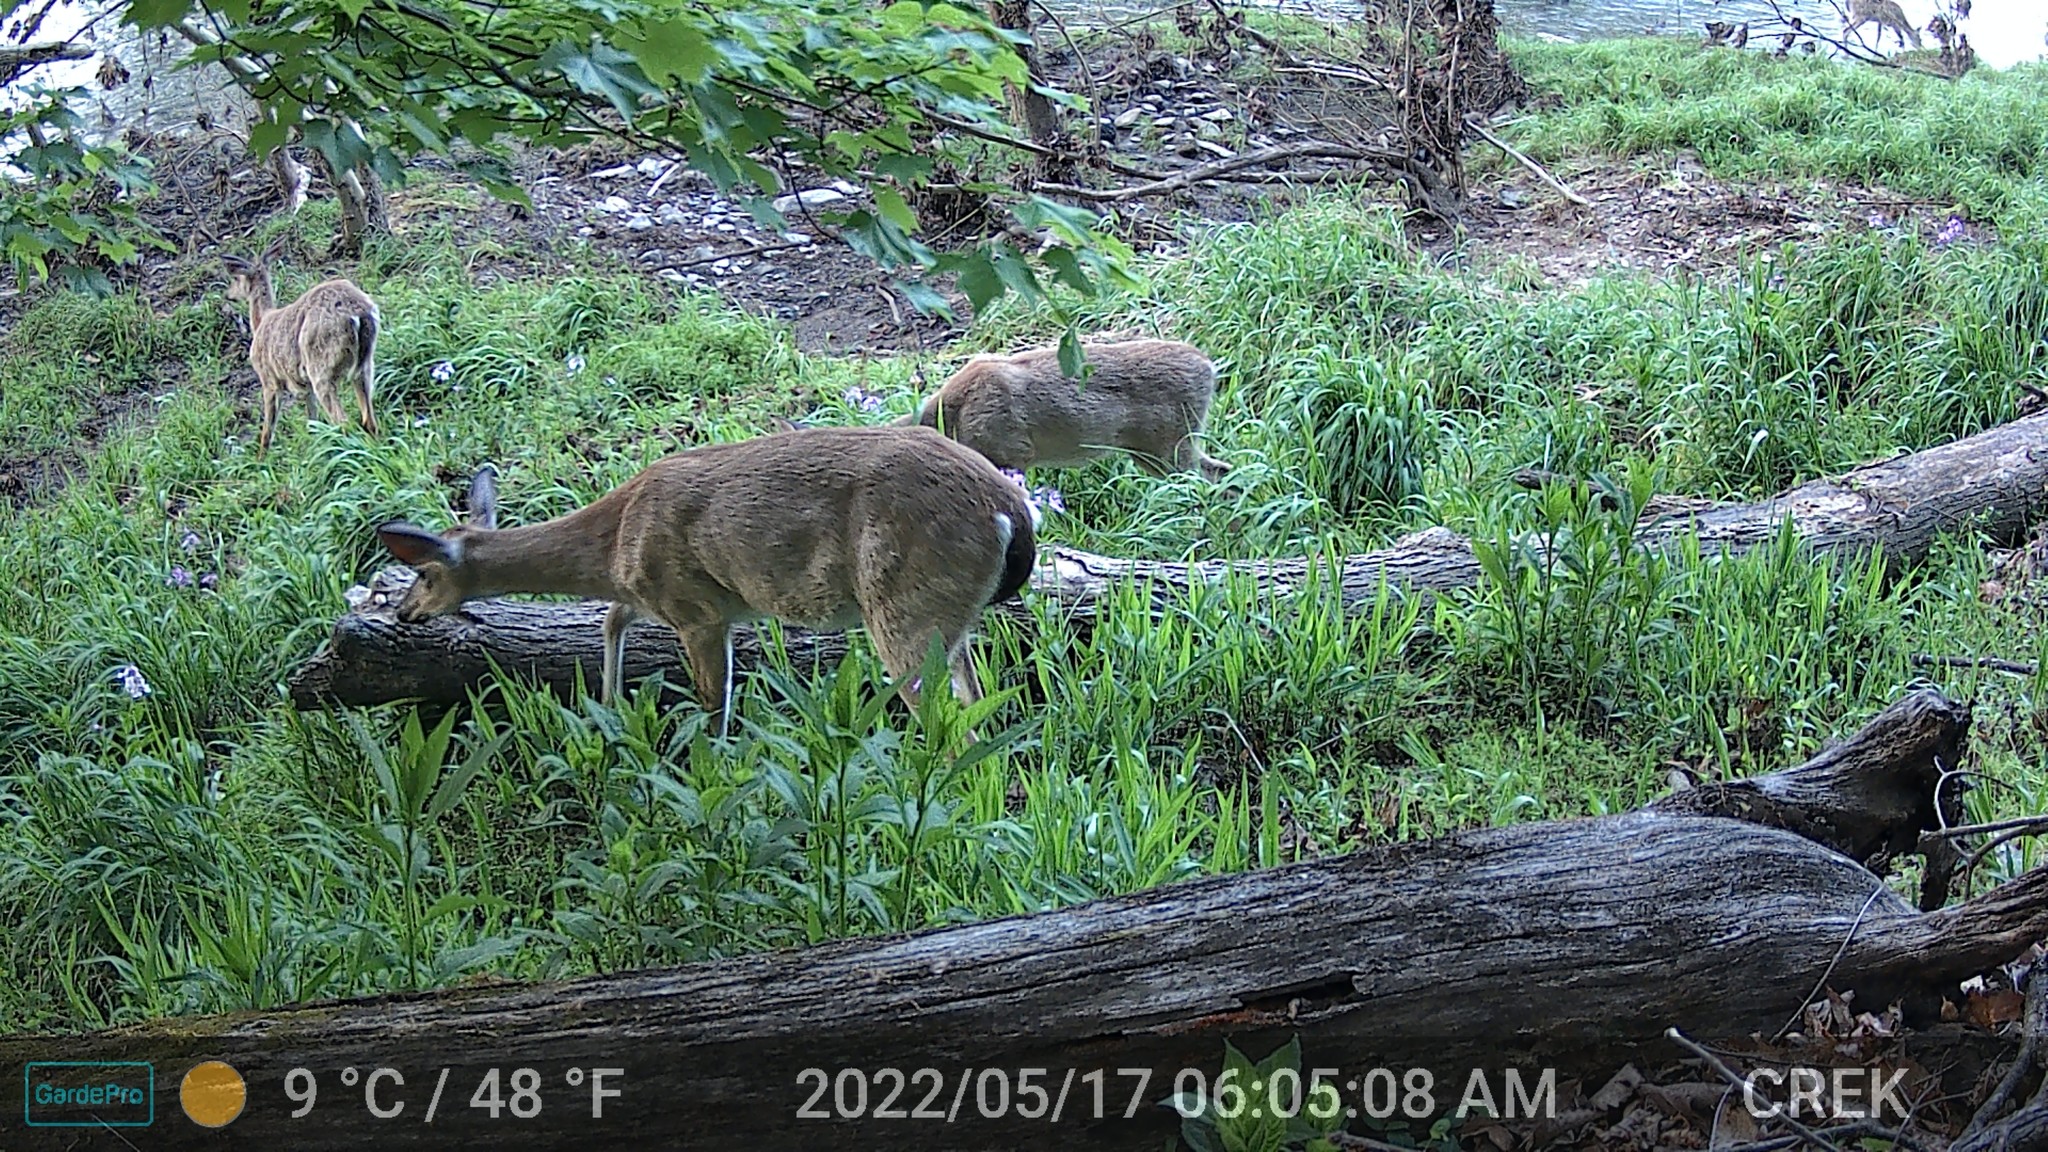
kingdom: Animalia
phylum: Chordata
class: Mammalia
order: Artiodactyla
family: Cervidae
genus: Odocoileus
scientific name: Odocoileus virginianus
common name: White-tailed deer
